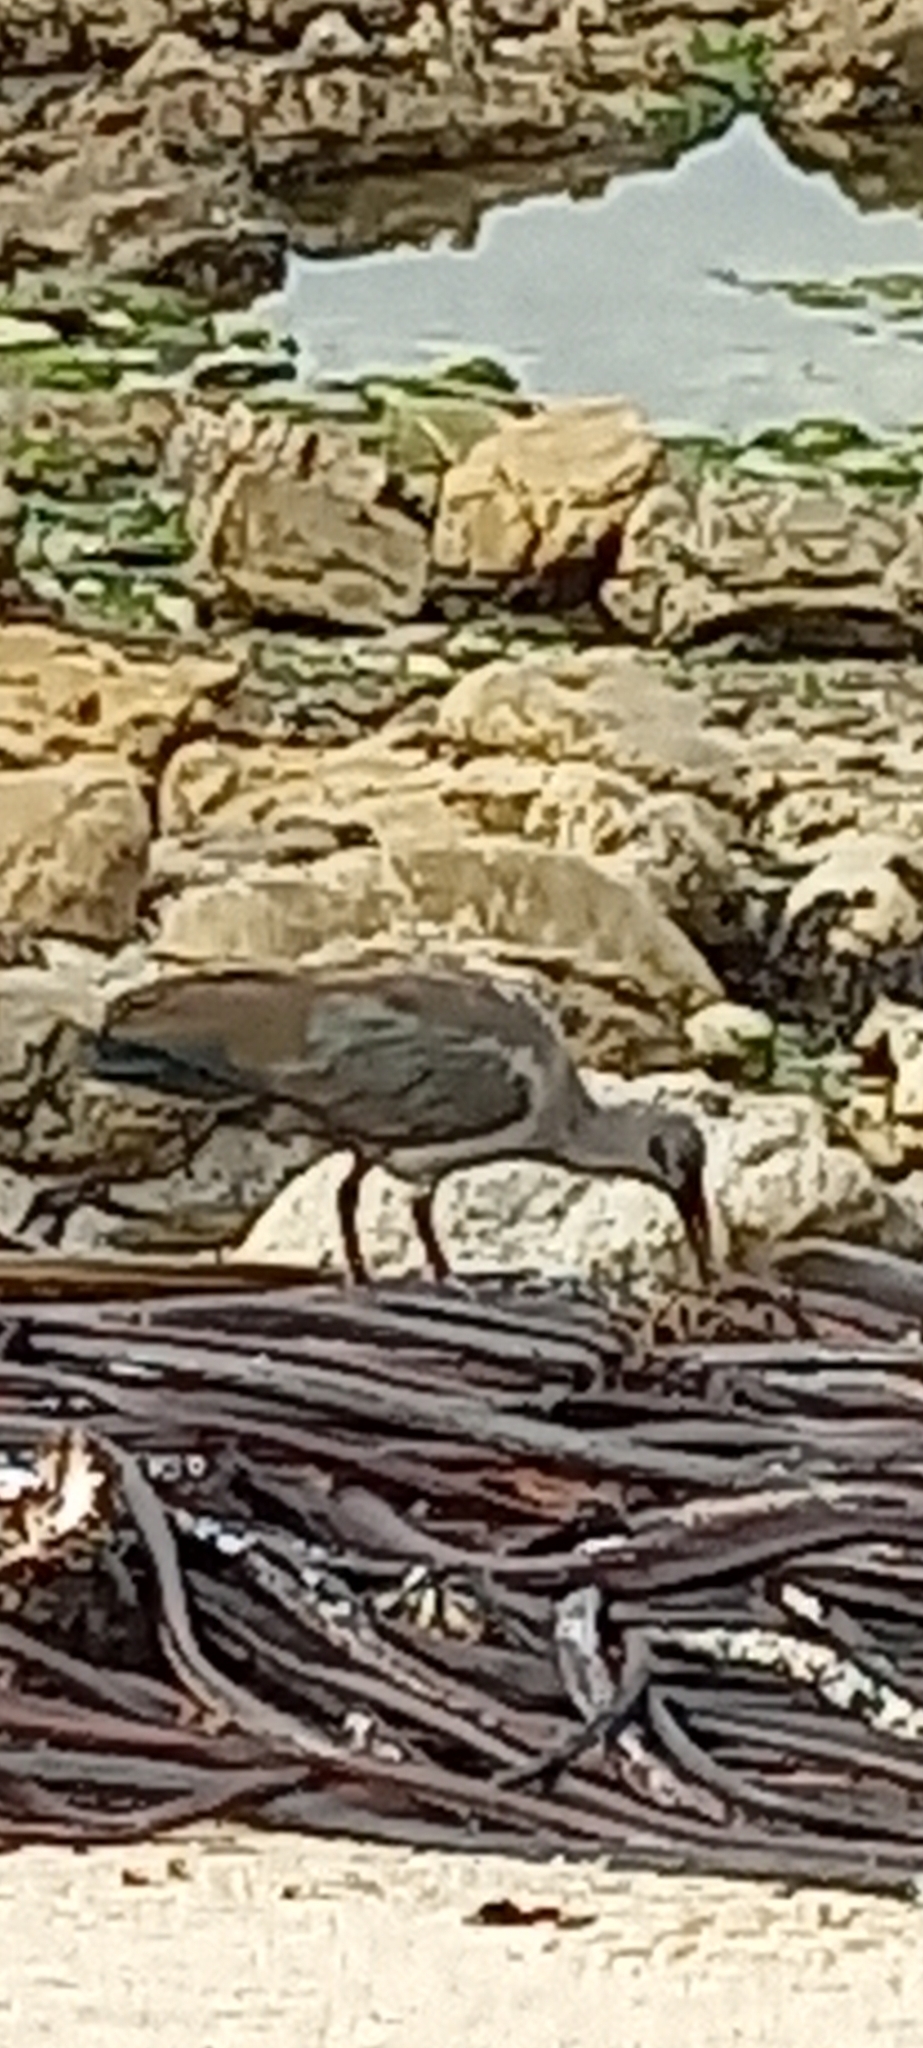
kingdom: Animalia
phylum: Chordata
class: Aves
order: Pelecaniformes
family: Threskiornithidae
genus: Bostrychia
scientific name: Bostrychia hagedash
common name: Hadada ibis
